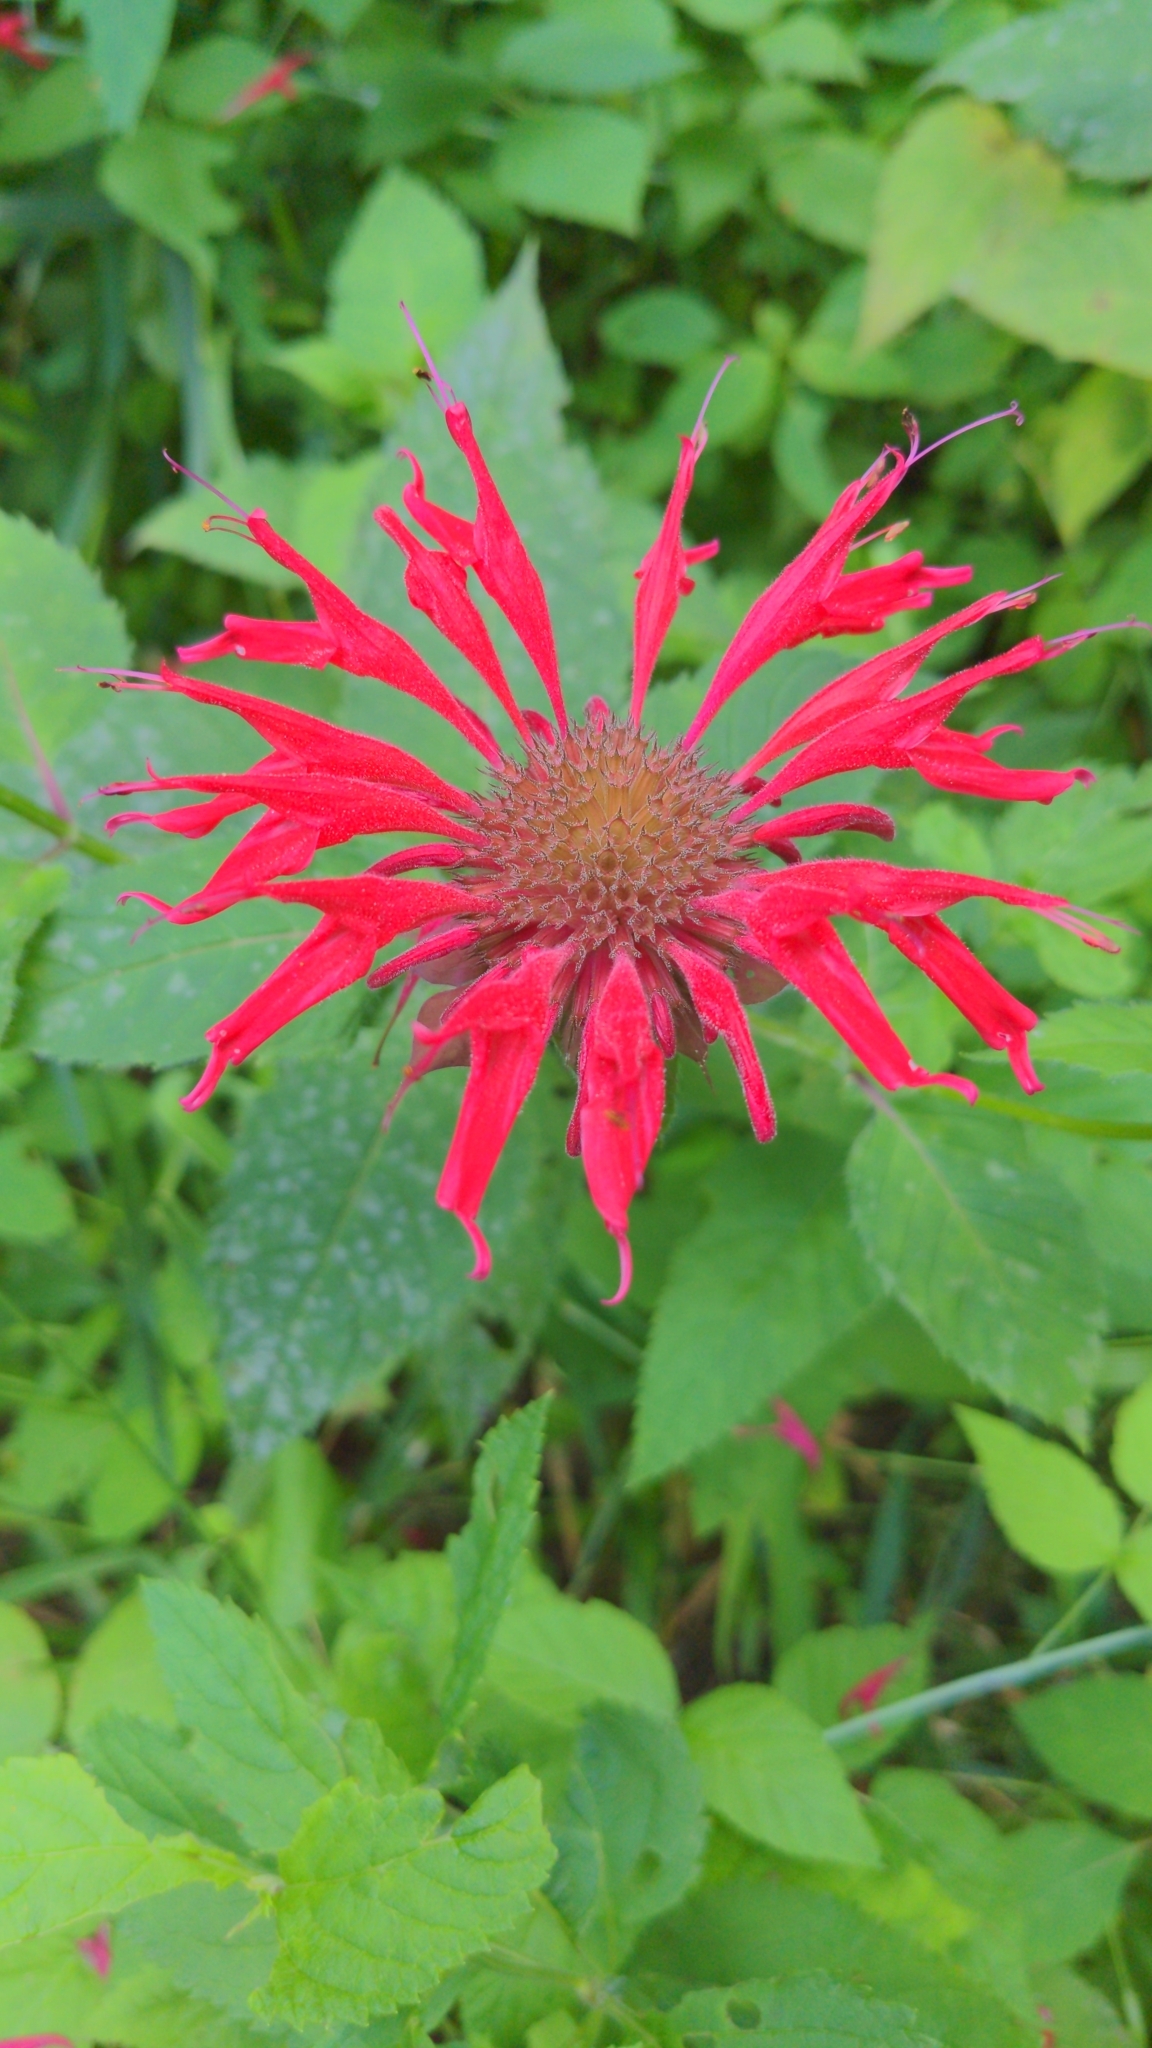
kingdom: Plantae
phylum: Tracheophyta
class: Magnoliopsida
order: Lamiales
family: Lamiaceae
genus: Monarda
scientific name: Monarda didyma
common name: Beebalm
